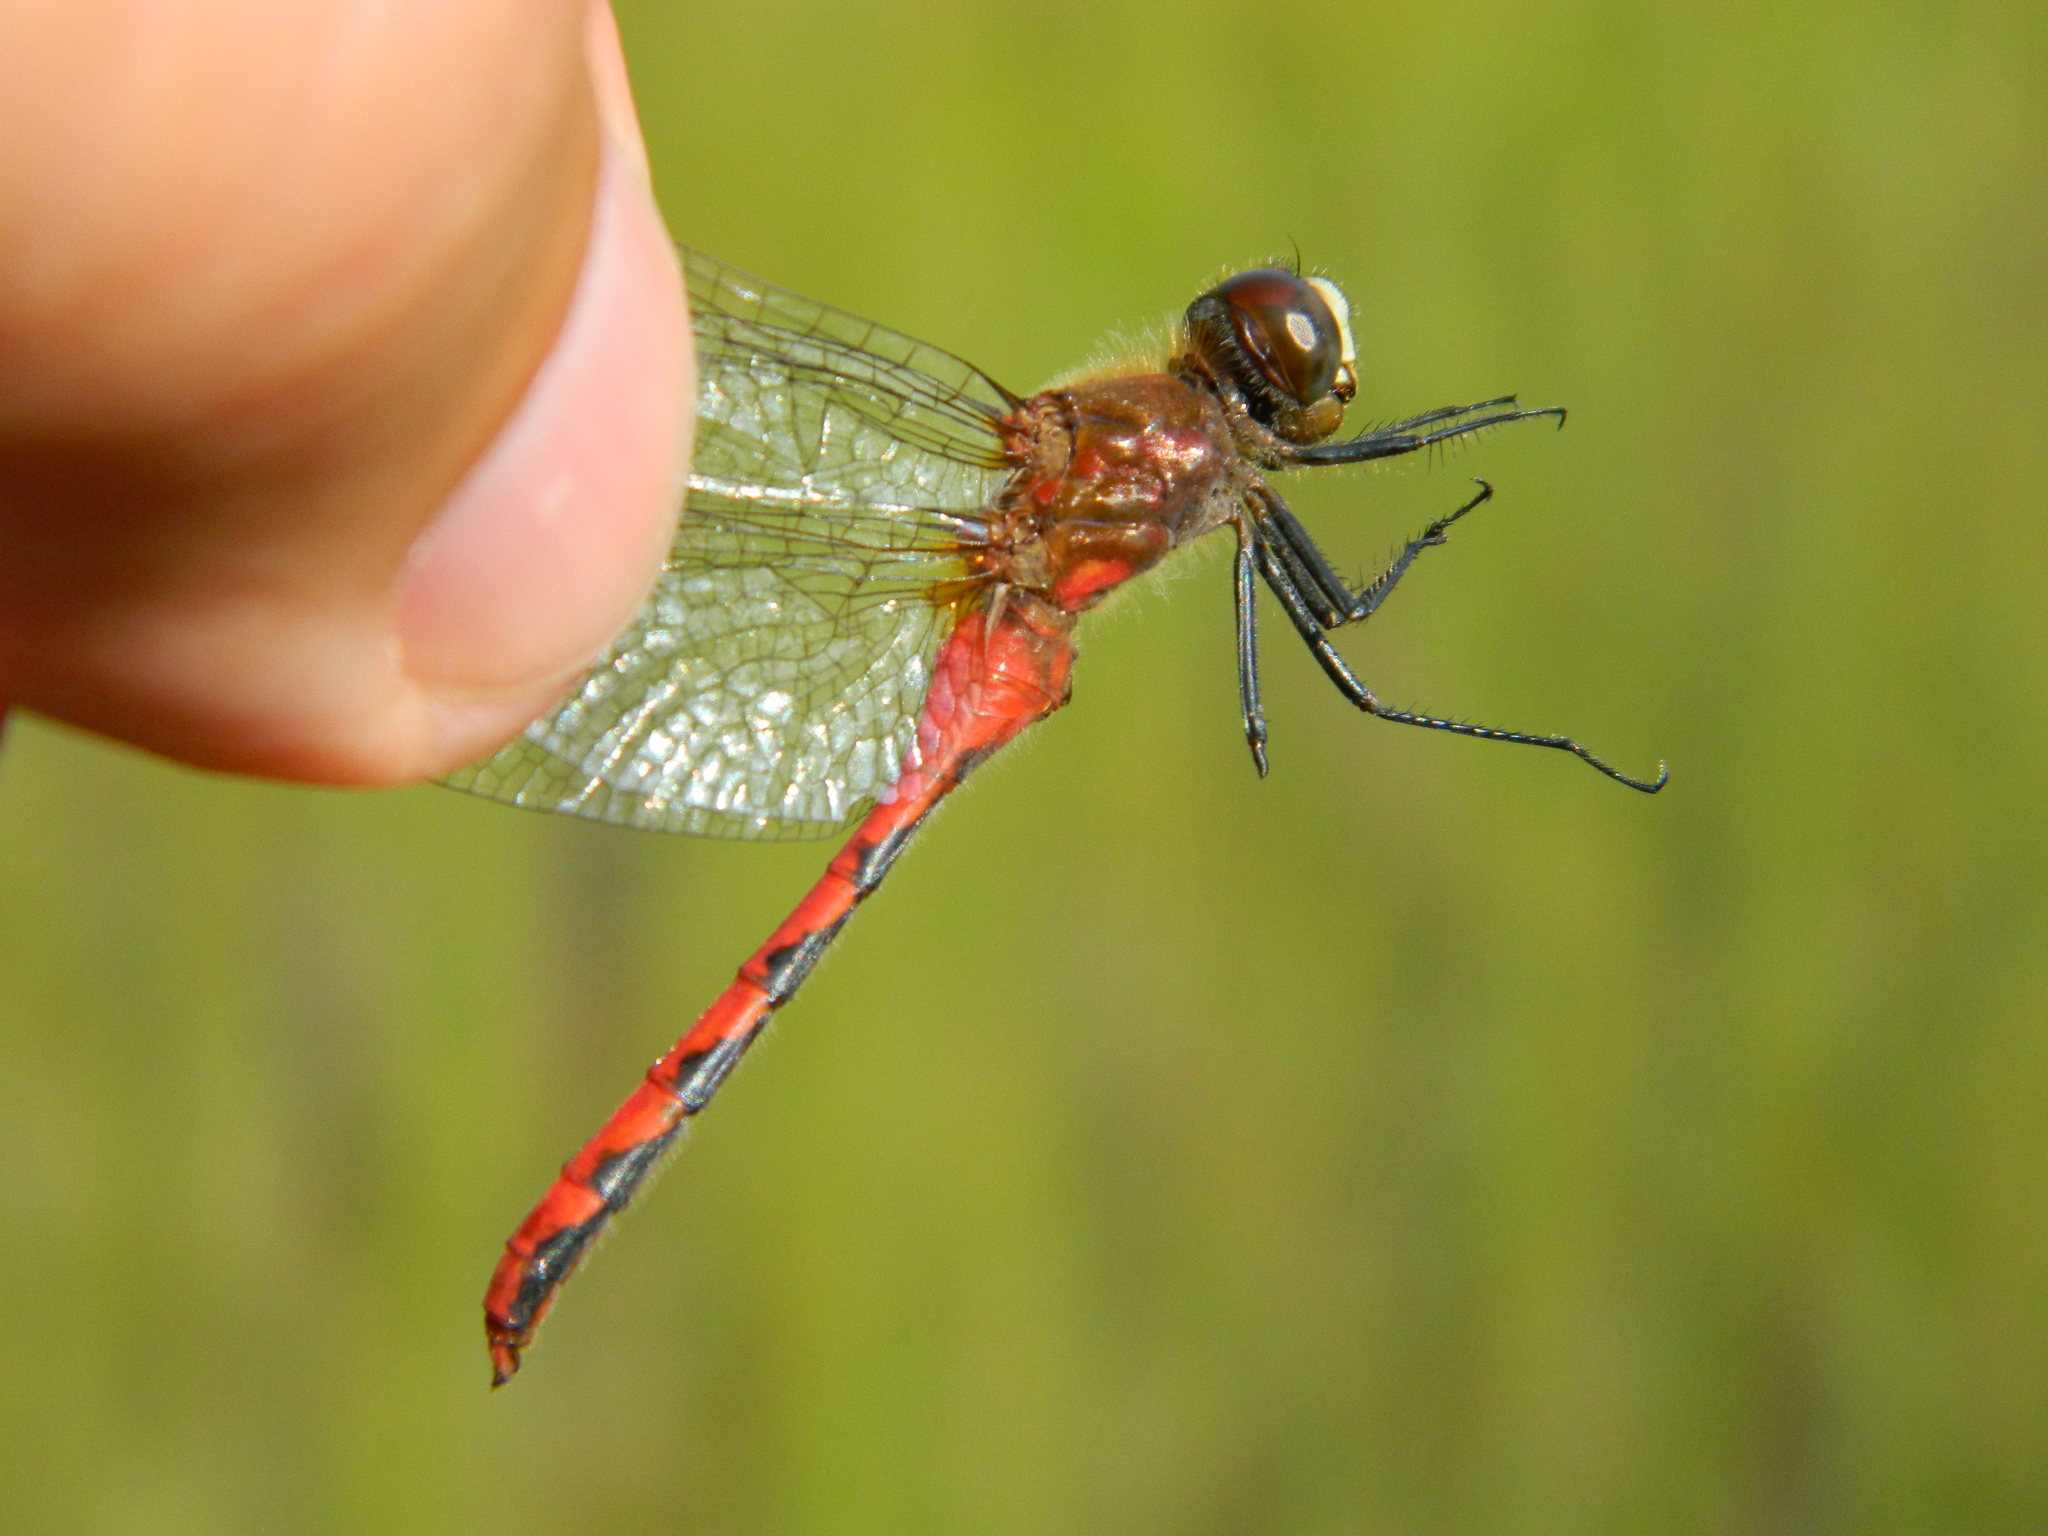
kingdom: Animalia
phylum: Arthropoda
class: Insecta
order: Odonata
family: Libellulidae
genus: Sympetrum
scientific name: Sympetrum obtrusum
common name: White-faced meadowhawk
